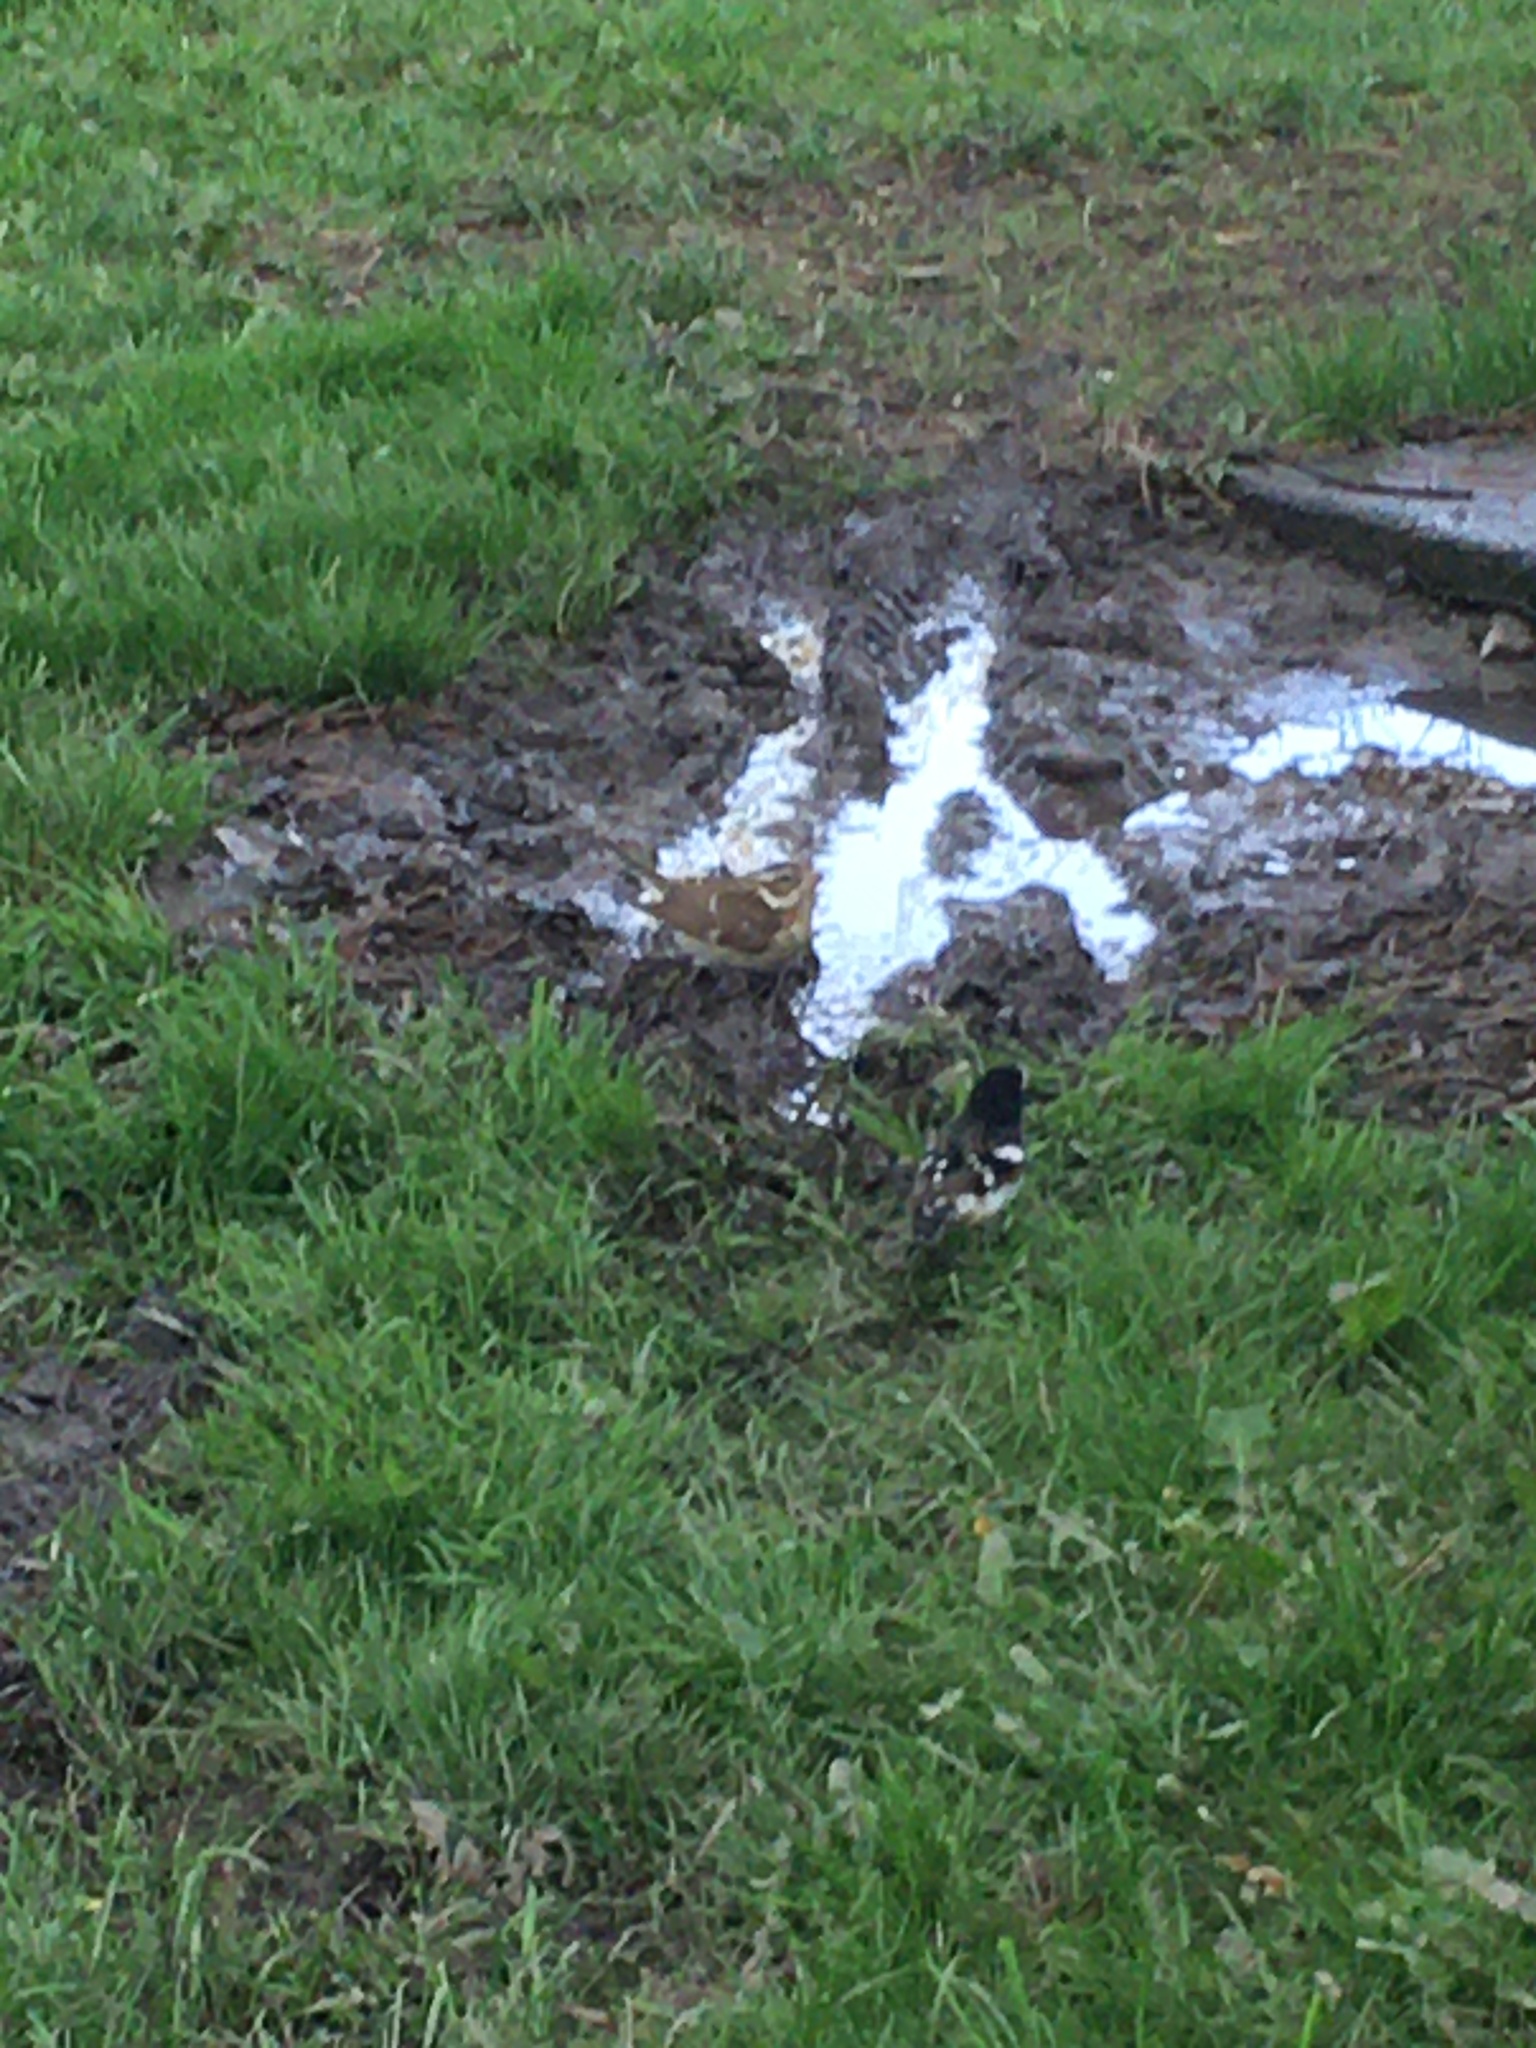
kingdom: Animalia
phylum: Chordata
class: Aves
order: Passeriformes
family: Cardinalidae
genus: Pheucticus
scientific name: Pheucticus ludovicianus
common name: Rose-breasted grosbeak
